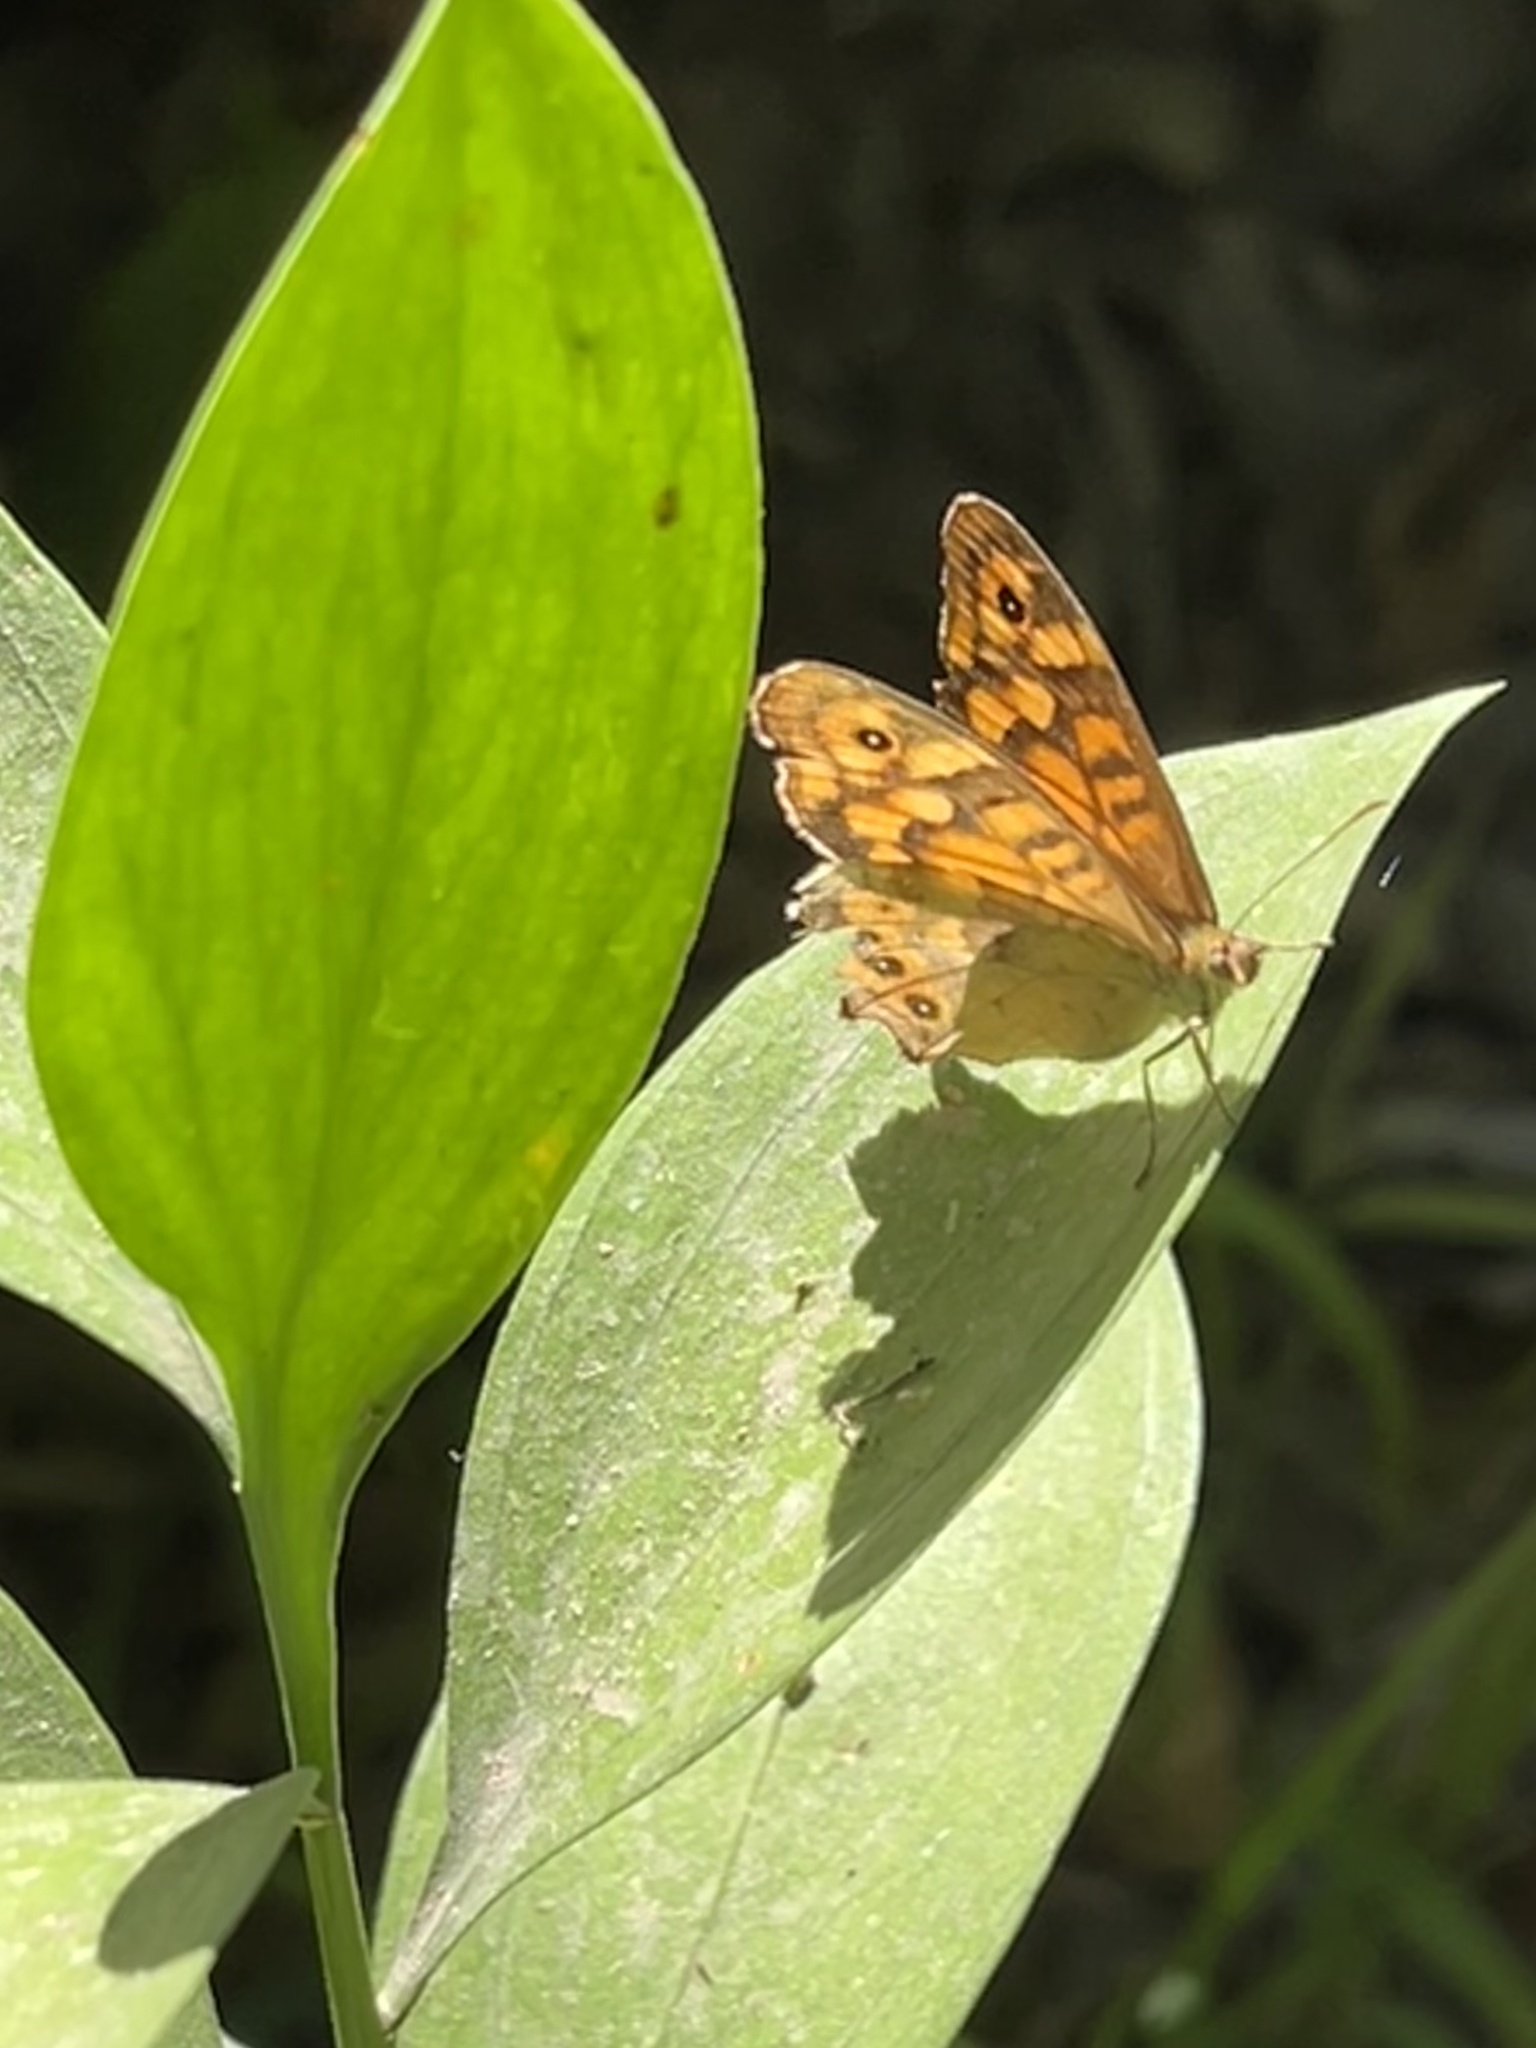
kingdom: Animalia
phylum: Arthropoda
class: Insecta
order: Lepidoptera
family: Nymphalidae
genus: Pararge
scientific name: Pararge aegeria
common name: Speckled wood
